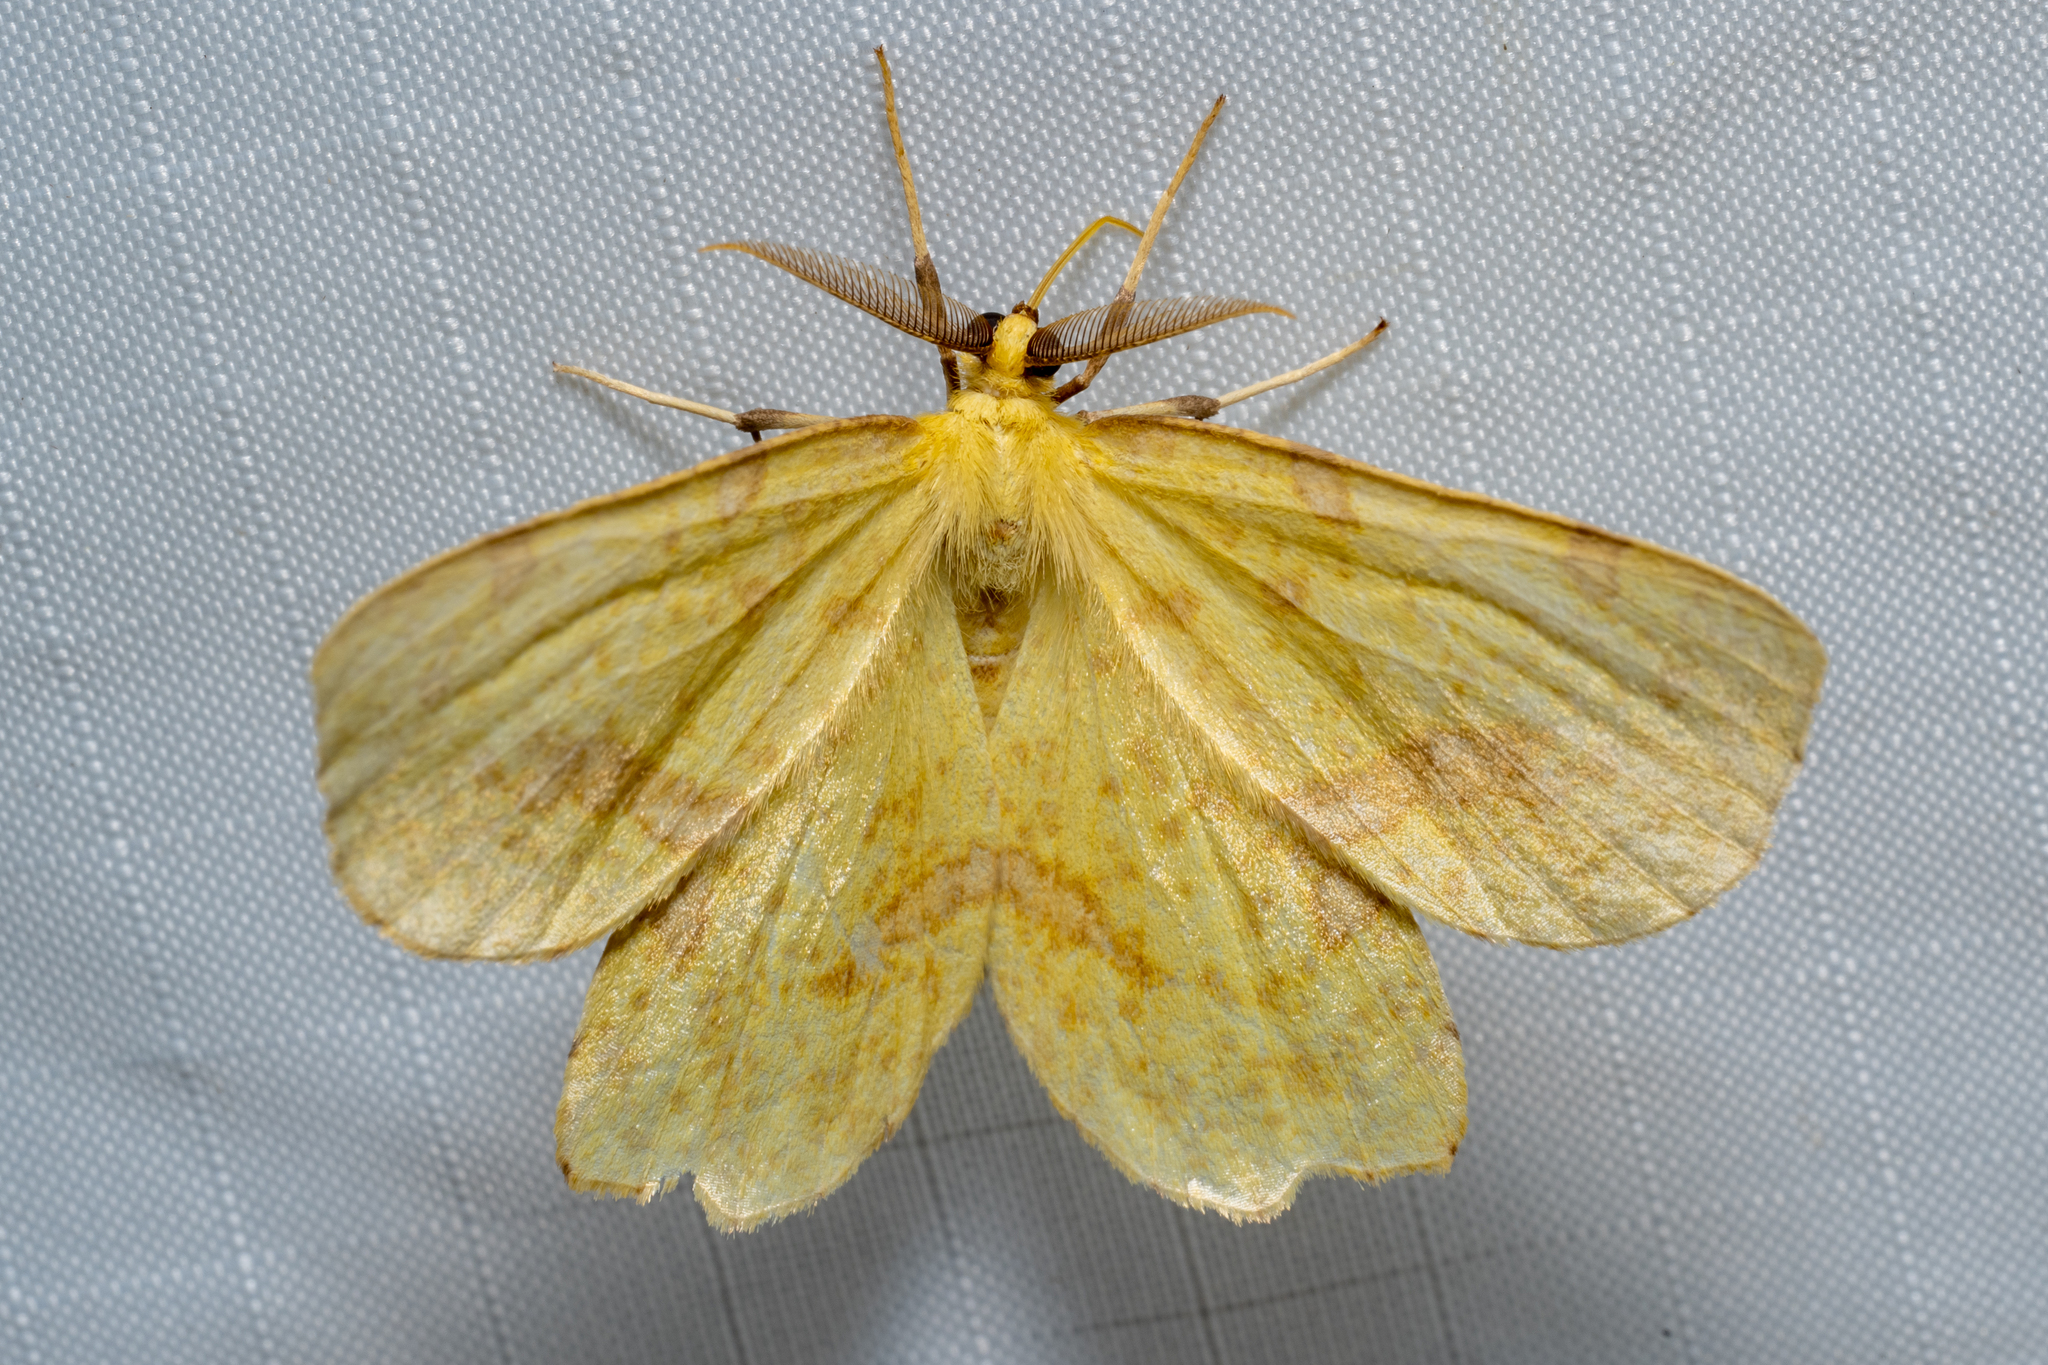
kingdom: Animalia
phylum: Arthropoda
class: Insecta
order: Lepidoptera
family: Geometridae
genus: Xanthotype
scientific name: Xanthotype
